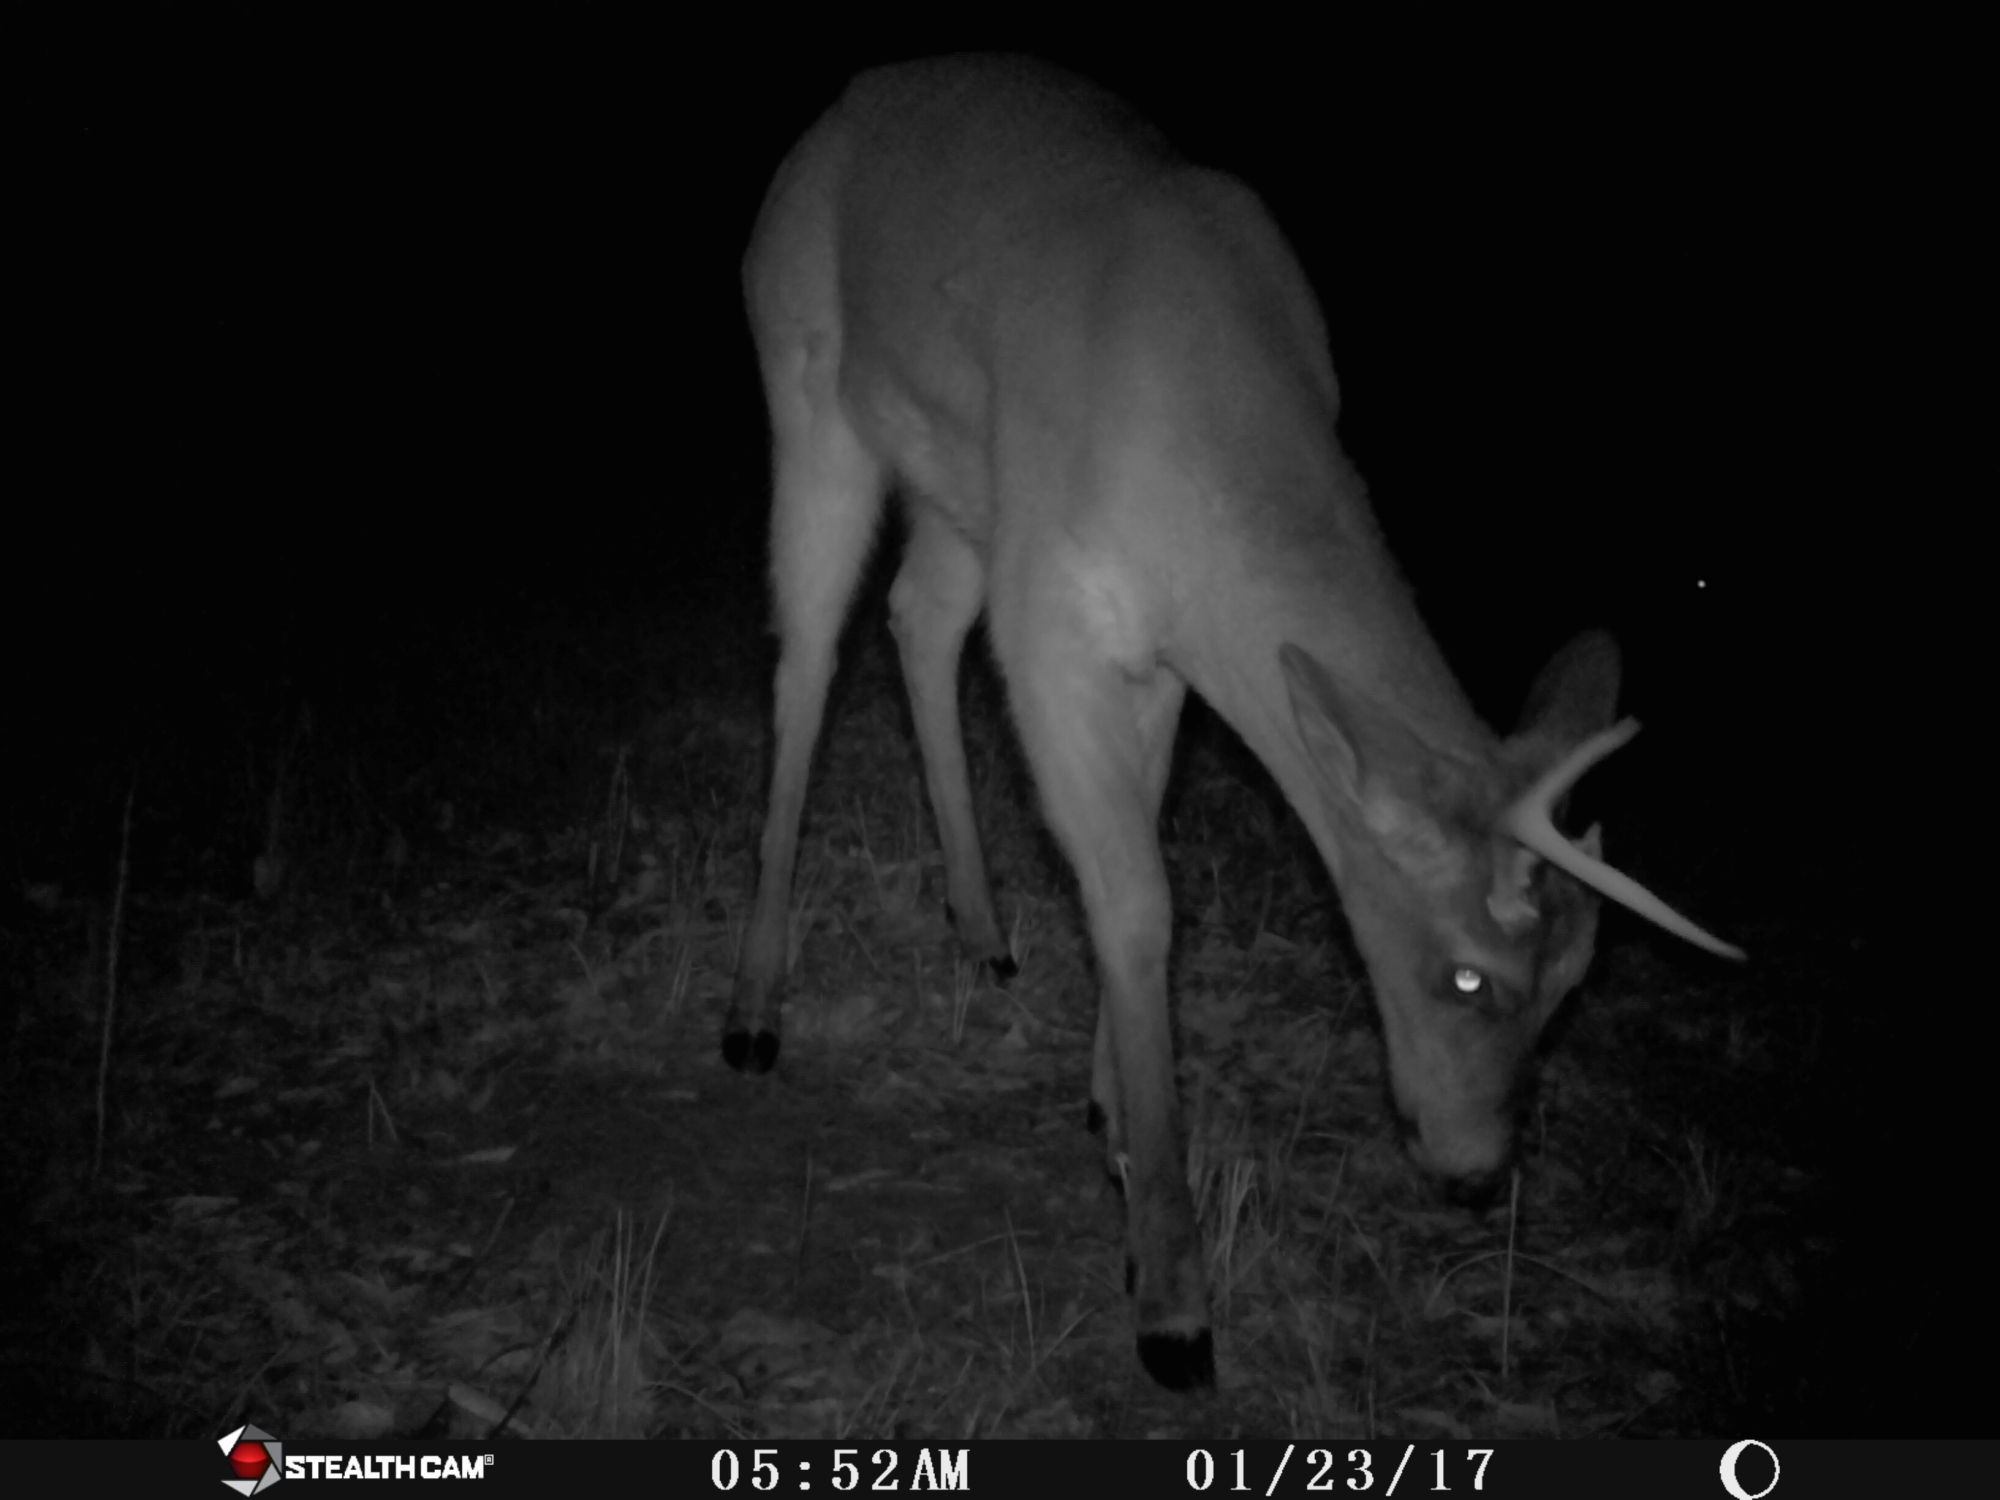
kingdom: Animalia
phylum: Chordata
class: Mammalia
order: Artiodactyla
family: Cervidae
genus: Odocoileus
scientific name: Odocoileus virginianus
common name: White-tailed deer
